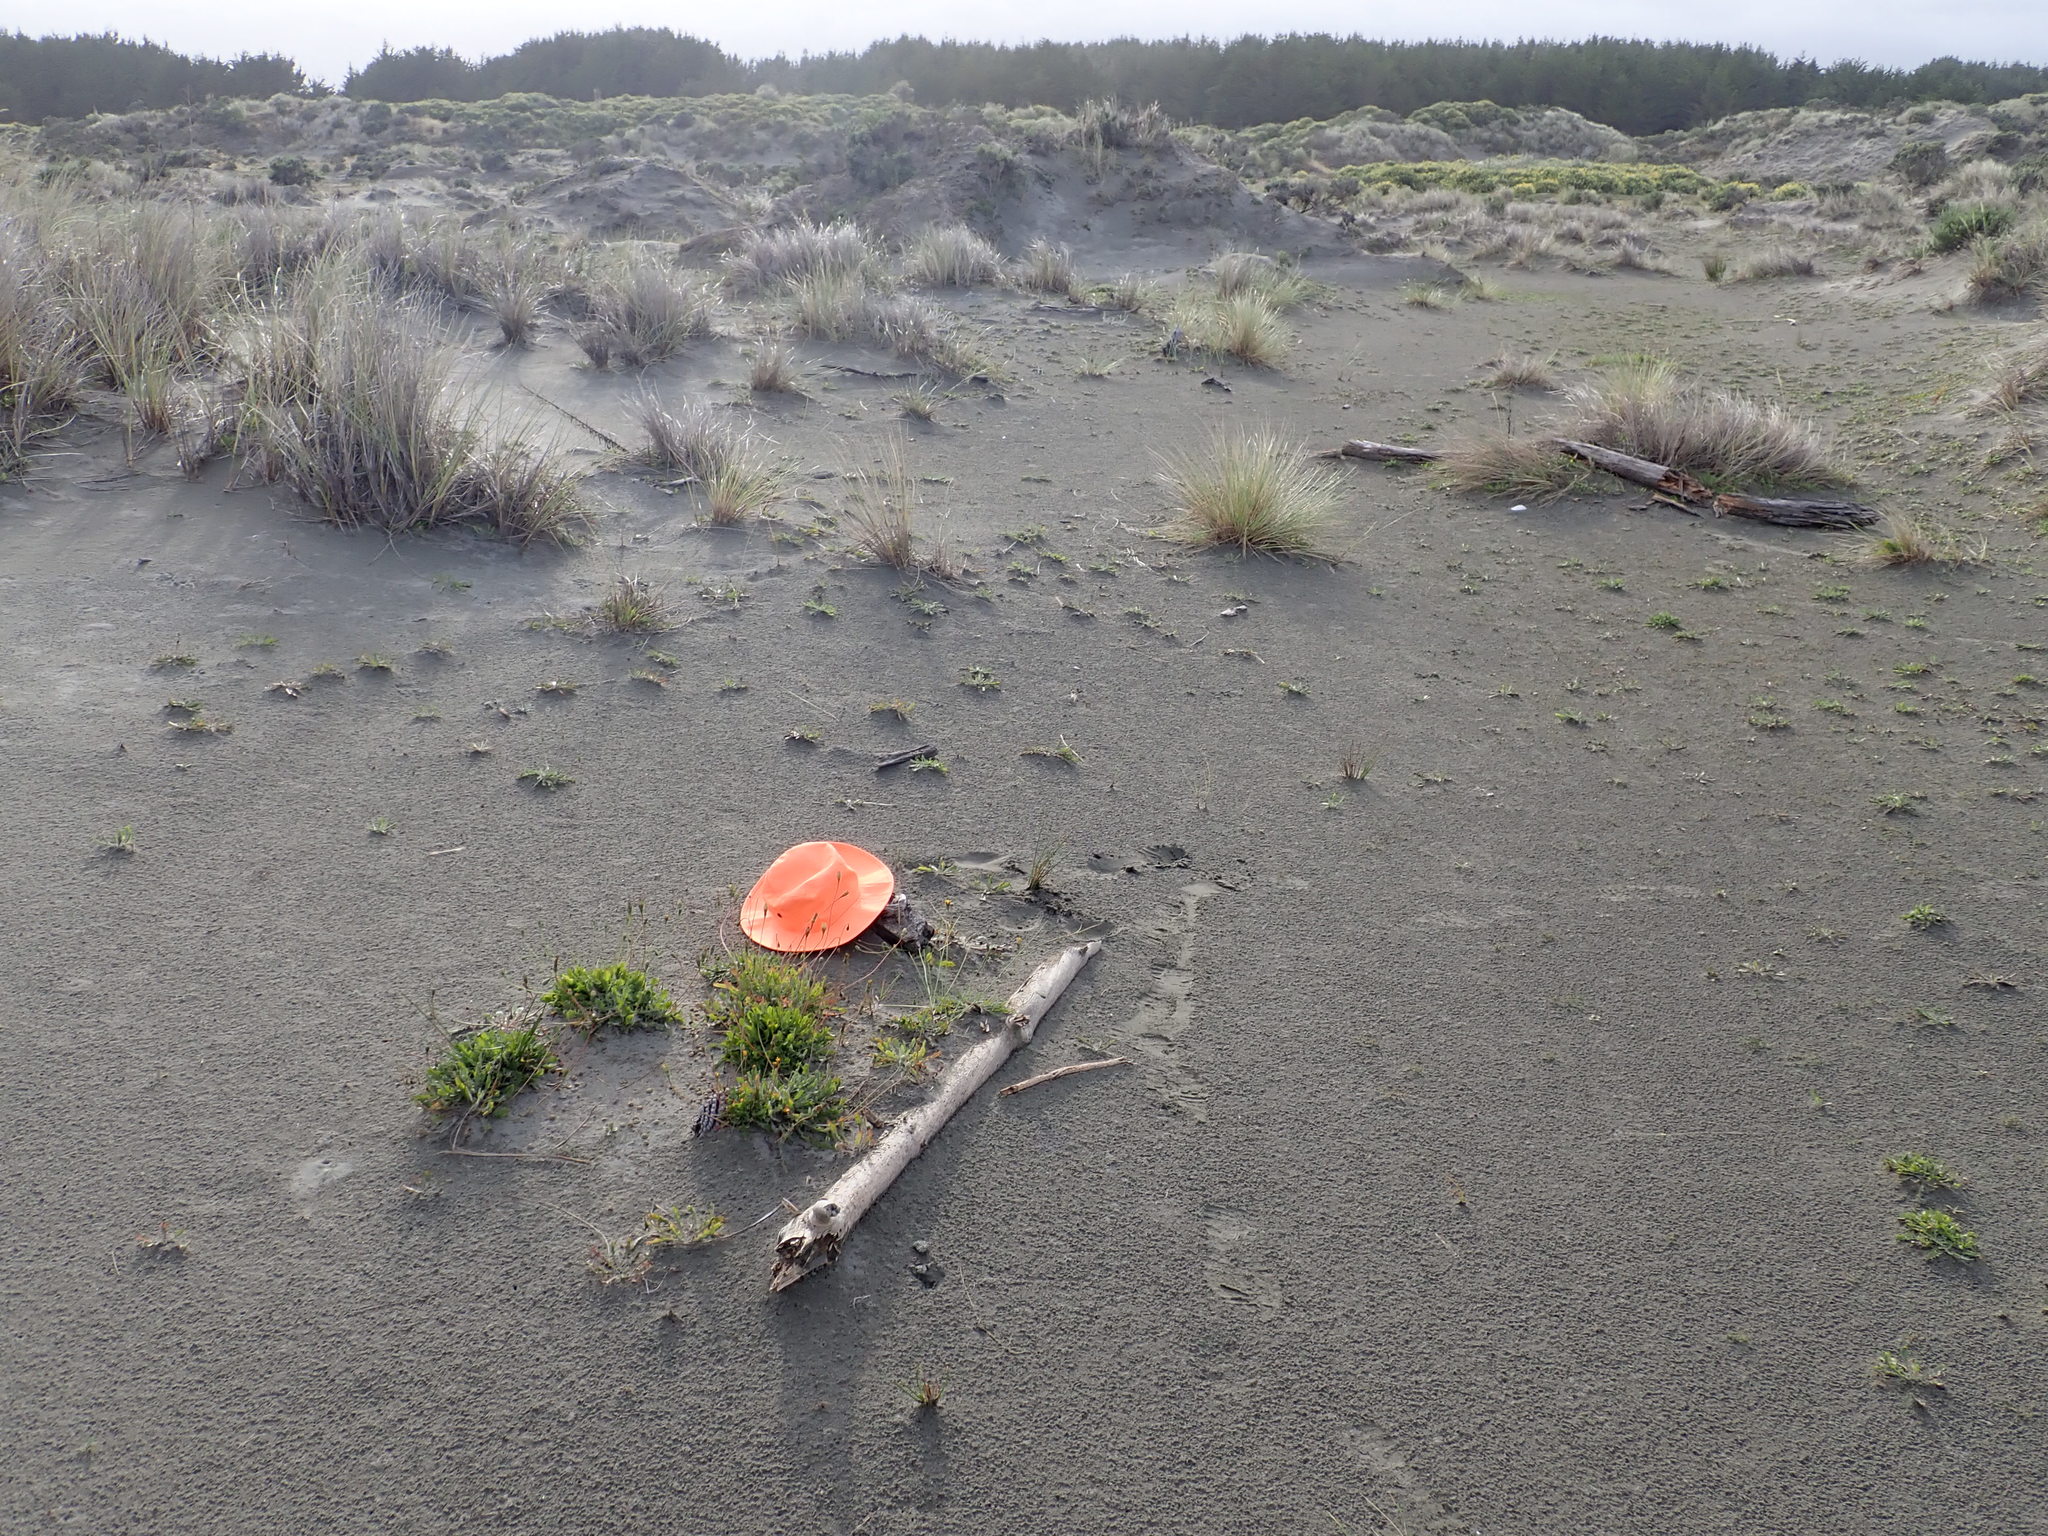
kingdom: Animalia
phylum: Arthropoda
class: Insecta
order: Coleoptera
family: Scarabaeidae
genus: Pericoptus
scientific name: Pericoptus truncatus
